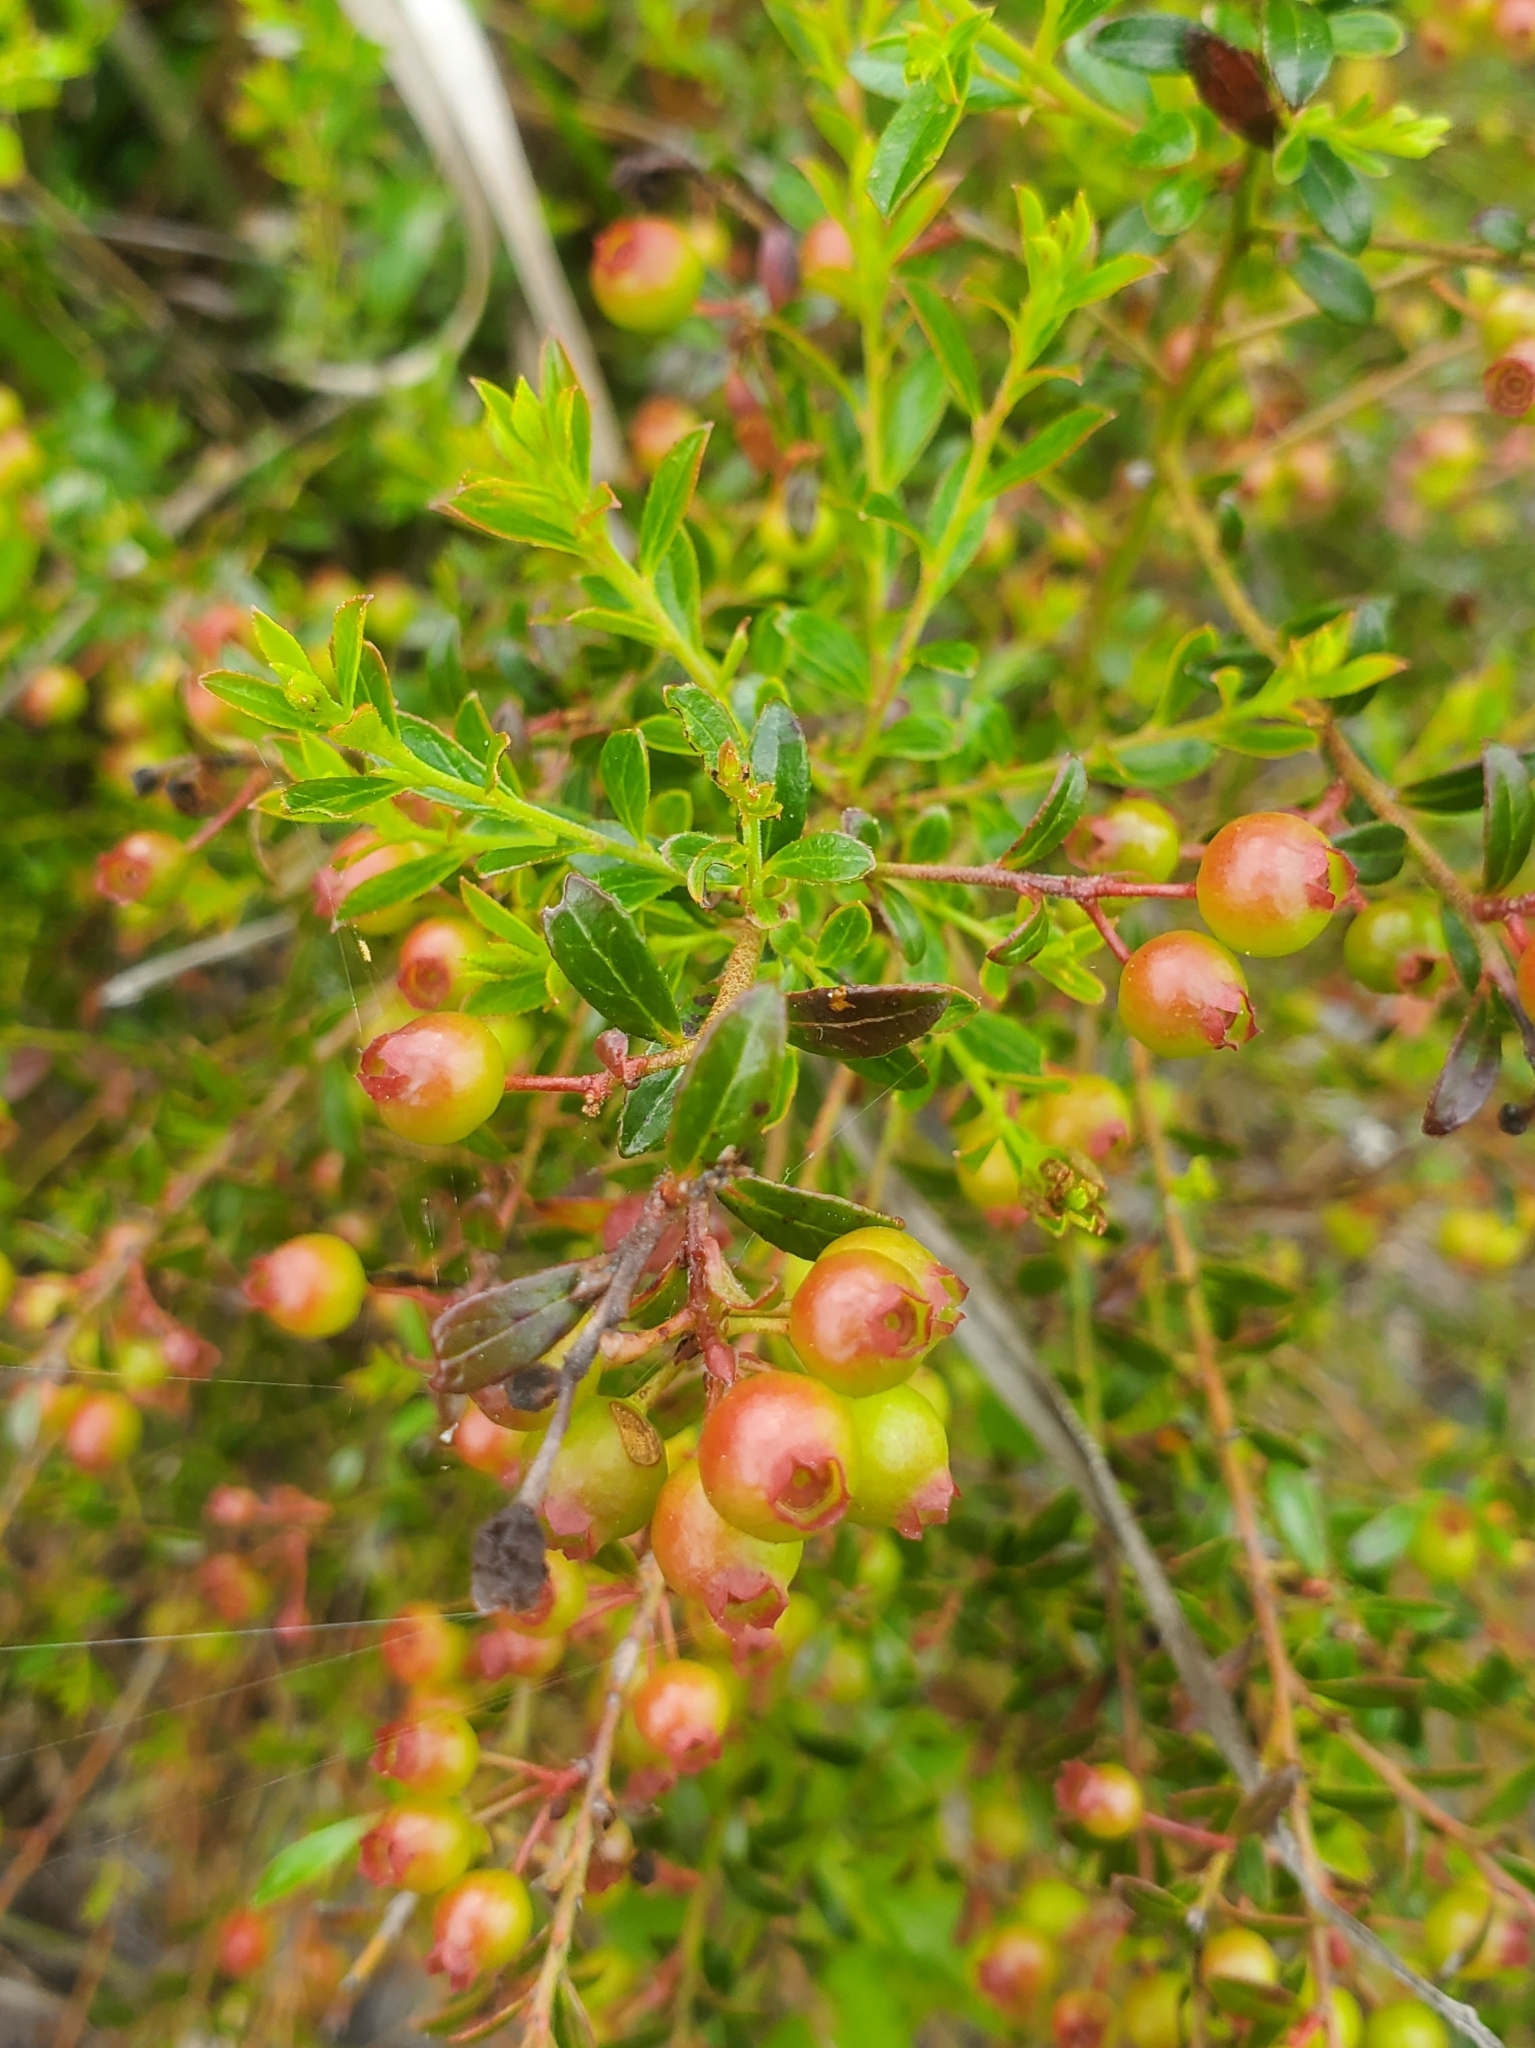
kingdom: Plantae
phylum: Tracheophyta
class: Magnoliopsida
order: Ericales
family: Ericaceae
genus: Vaccinium
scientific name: Vaccinium myrsinites
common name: Evergreen blueberry
